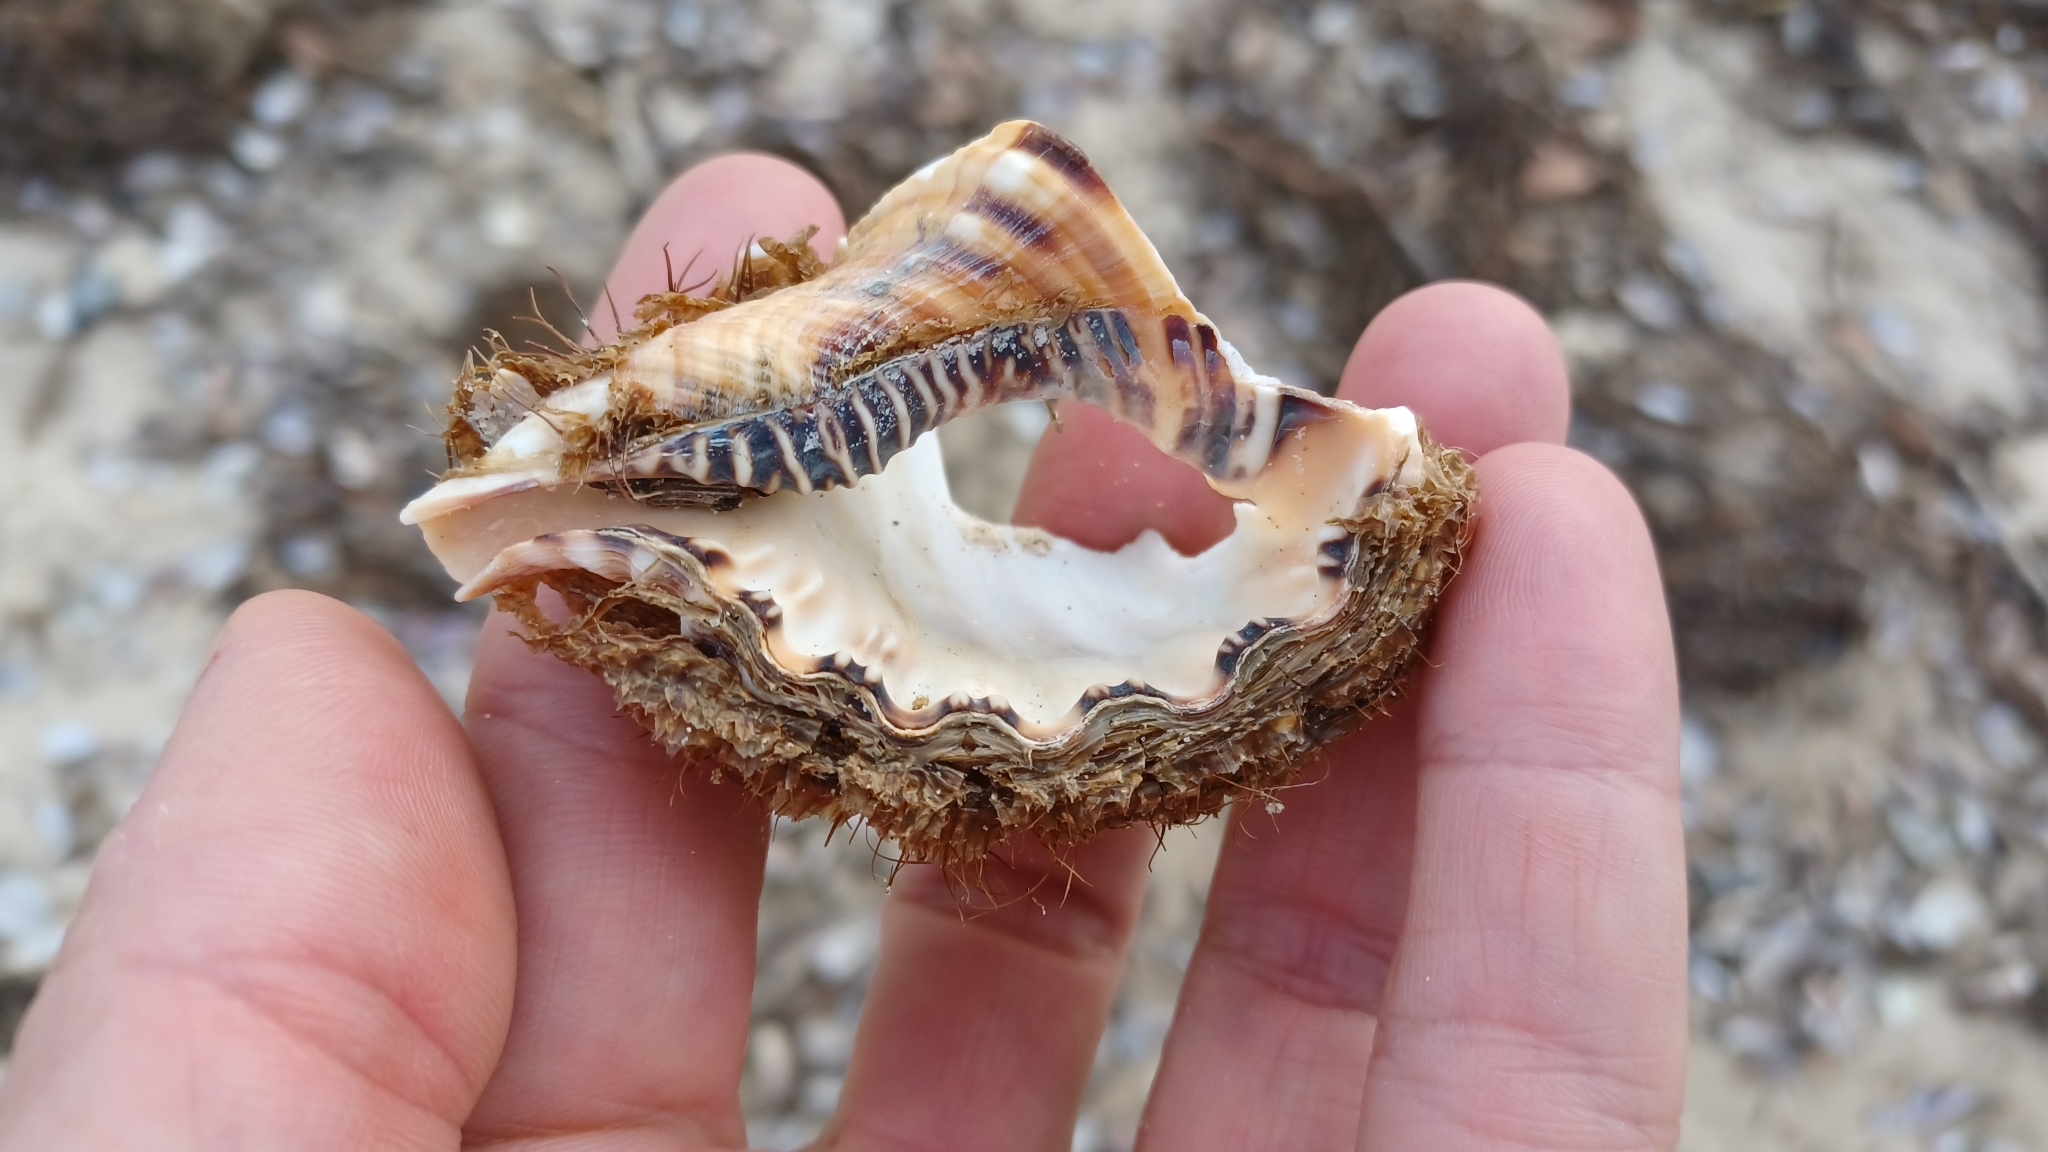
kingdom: Animalia
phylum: Mollusca
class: Gastropoda
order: Littorinimorpha
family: Cymatiidae
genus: Monoplex
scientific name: Monoplex parthenopeus
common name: Giant triton
